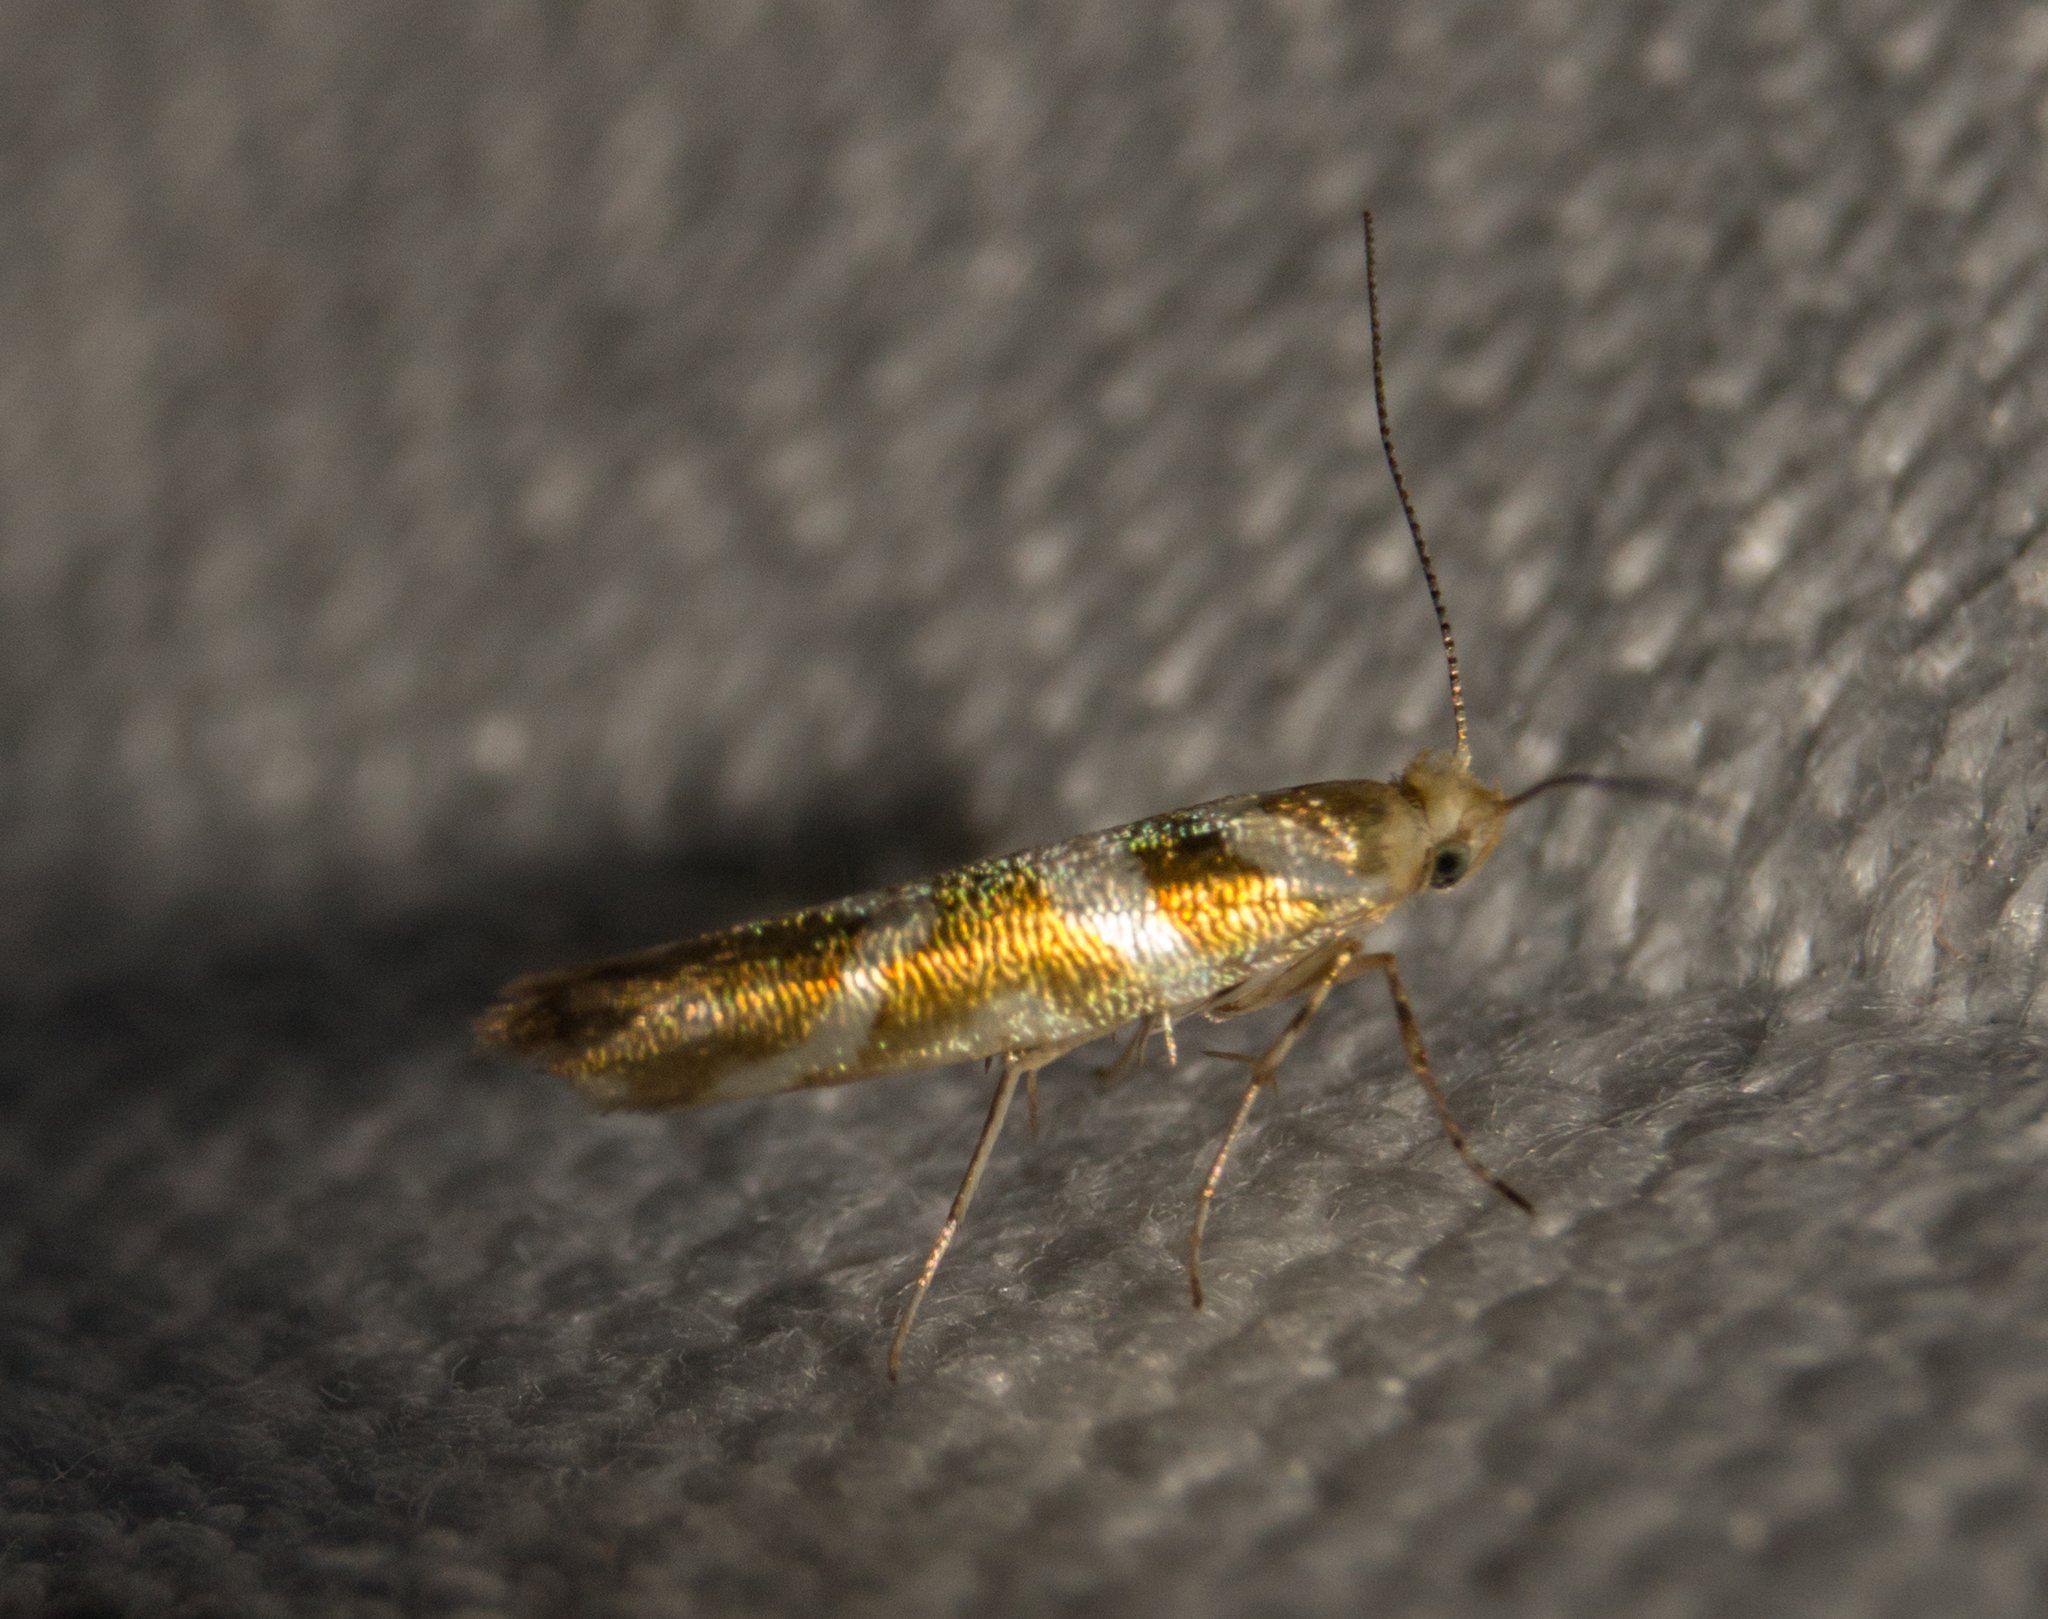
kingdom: Animalia
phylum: Arthropoda
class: Insecta
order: Lepidoptera
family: Argyresthiidae
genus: Argyresthia
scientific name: Argyresthia goedartella
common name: Golden argent
